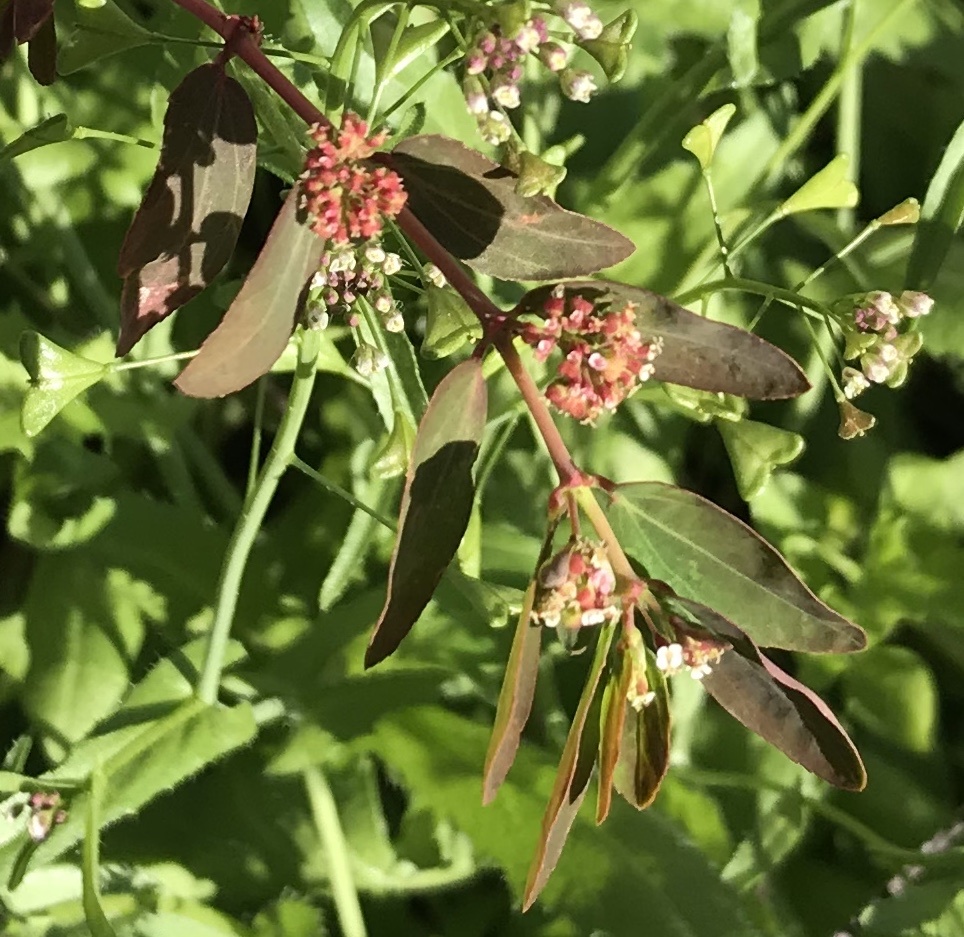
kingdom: Plantae
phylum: Tracheophyta
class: Magnoliopsida
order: Malpighiales
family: Euphorbiaceae
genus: Euphorbia
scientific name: Euphorbia hypericifolia
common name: Graceful sandmat
